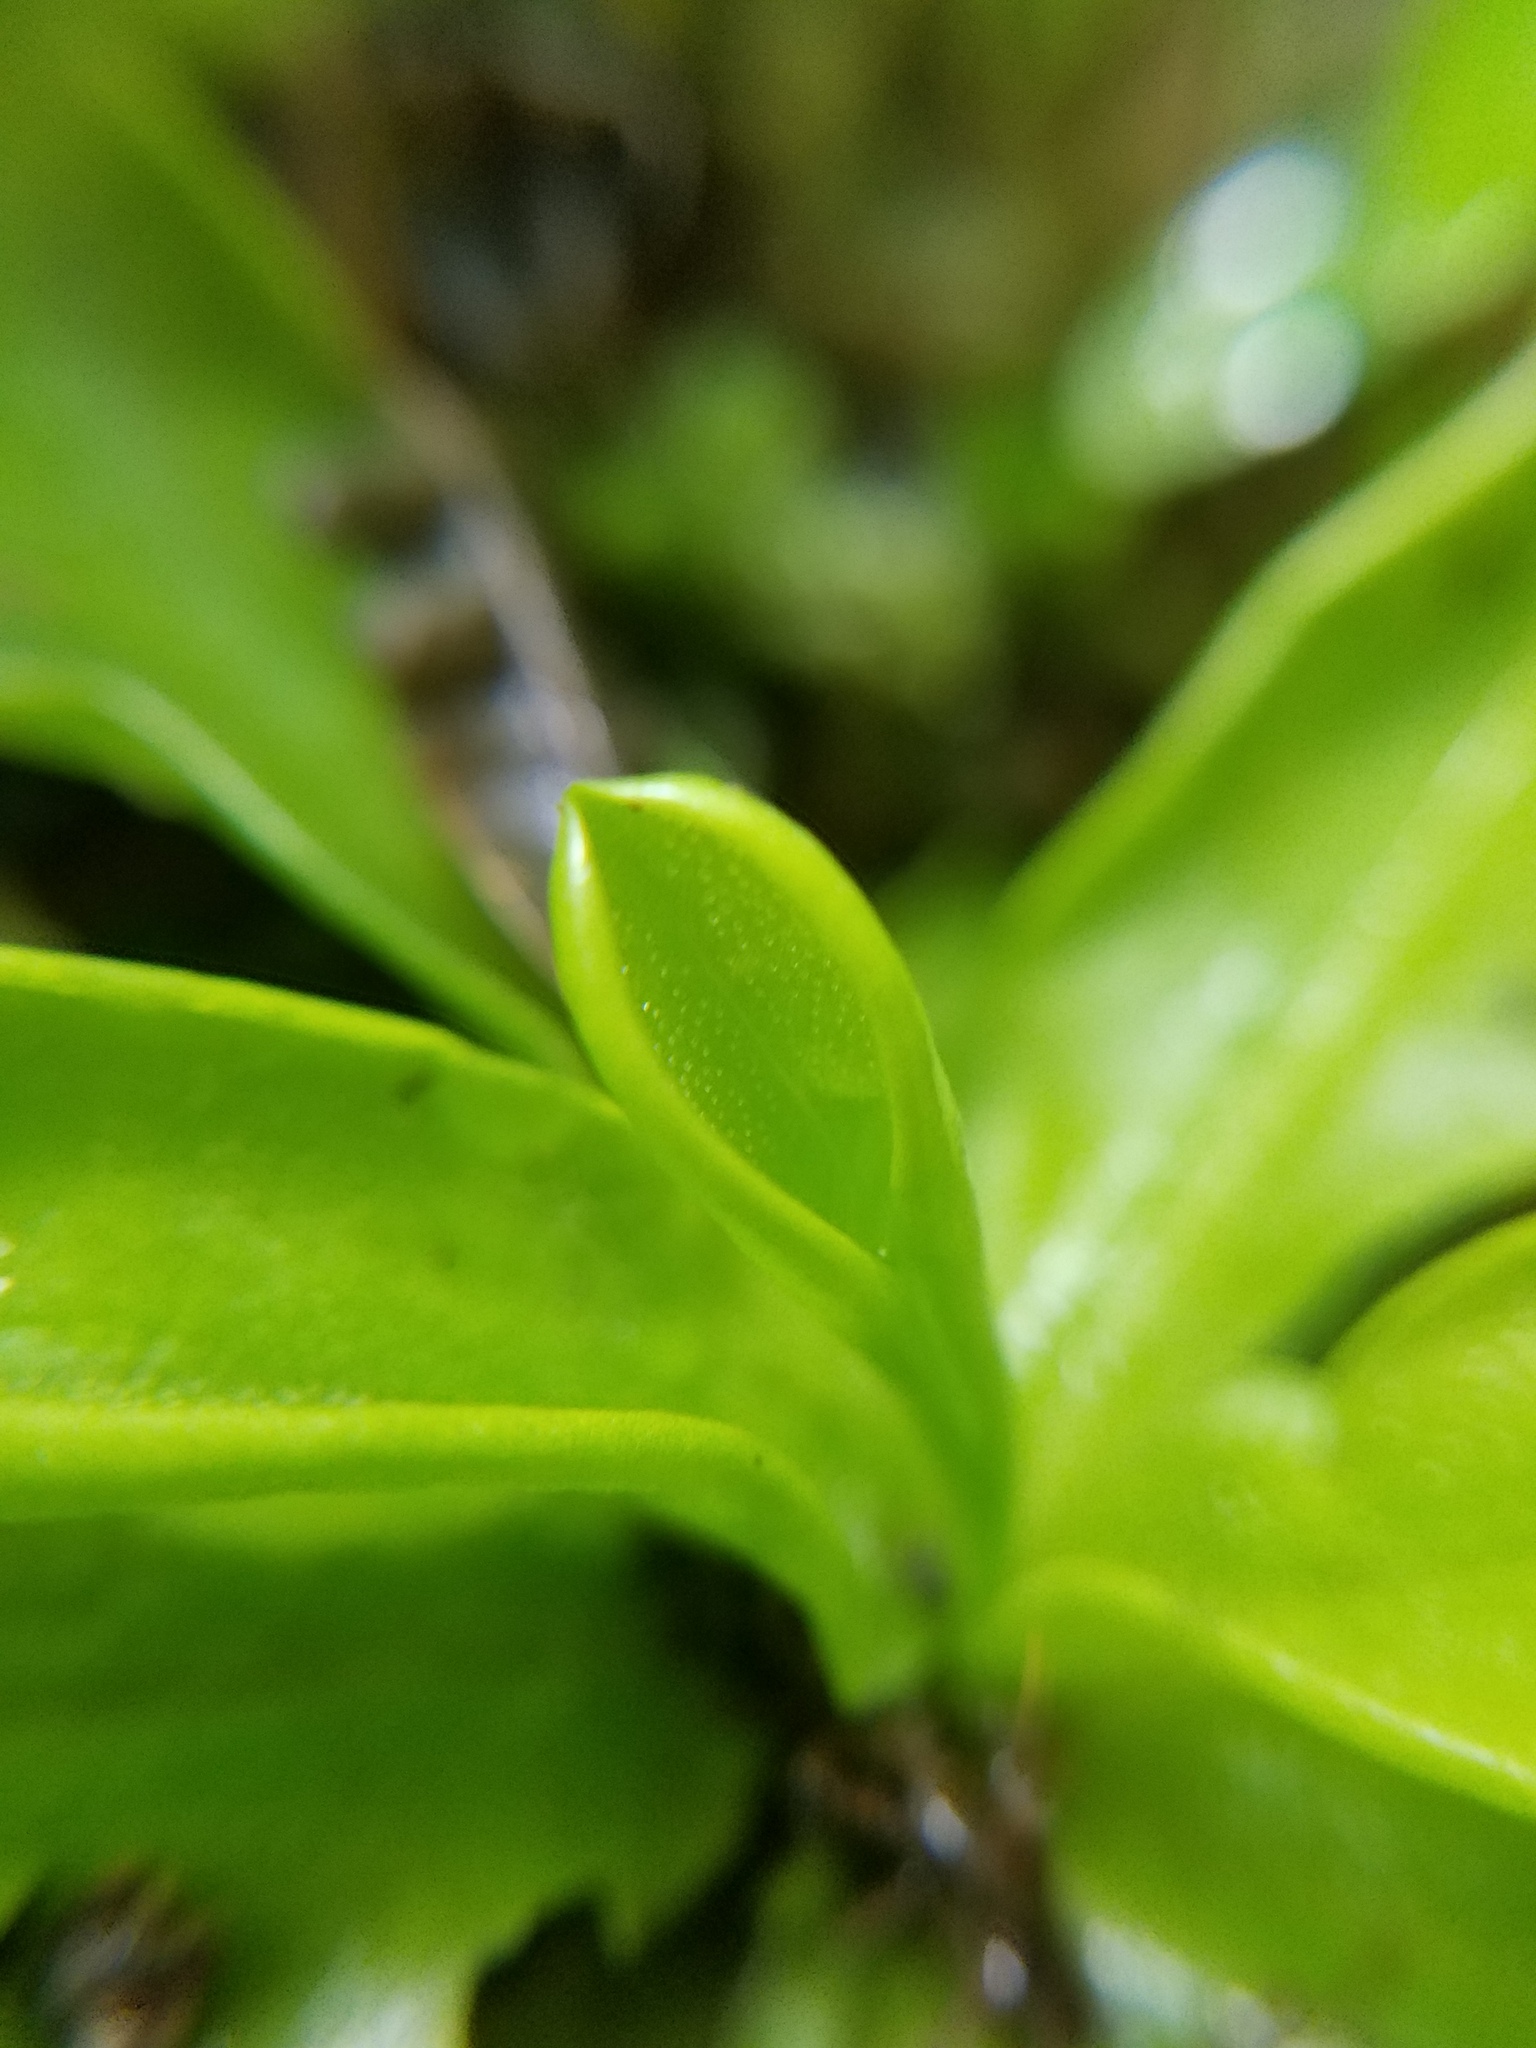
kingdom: Plantae
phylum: Tracheophyta
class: Magnoliopsida
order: Lamiales
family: Lentibulariaceae
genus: Pinguicula
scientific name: Pinguicula primuliflora
